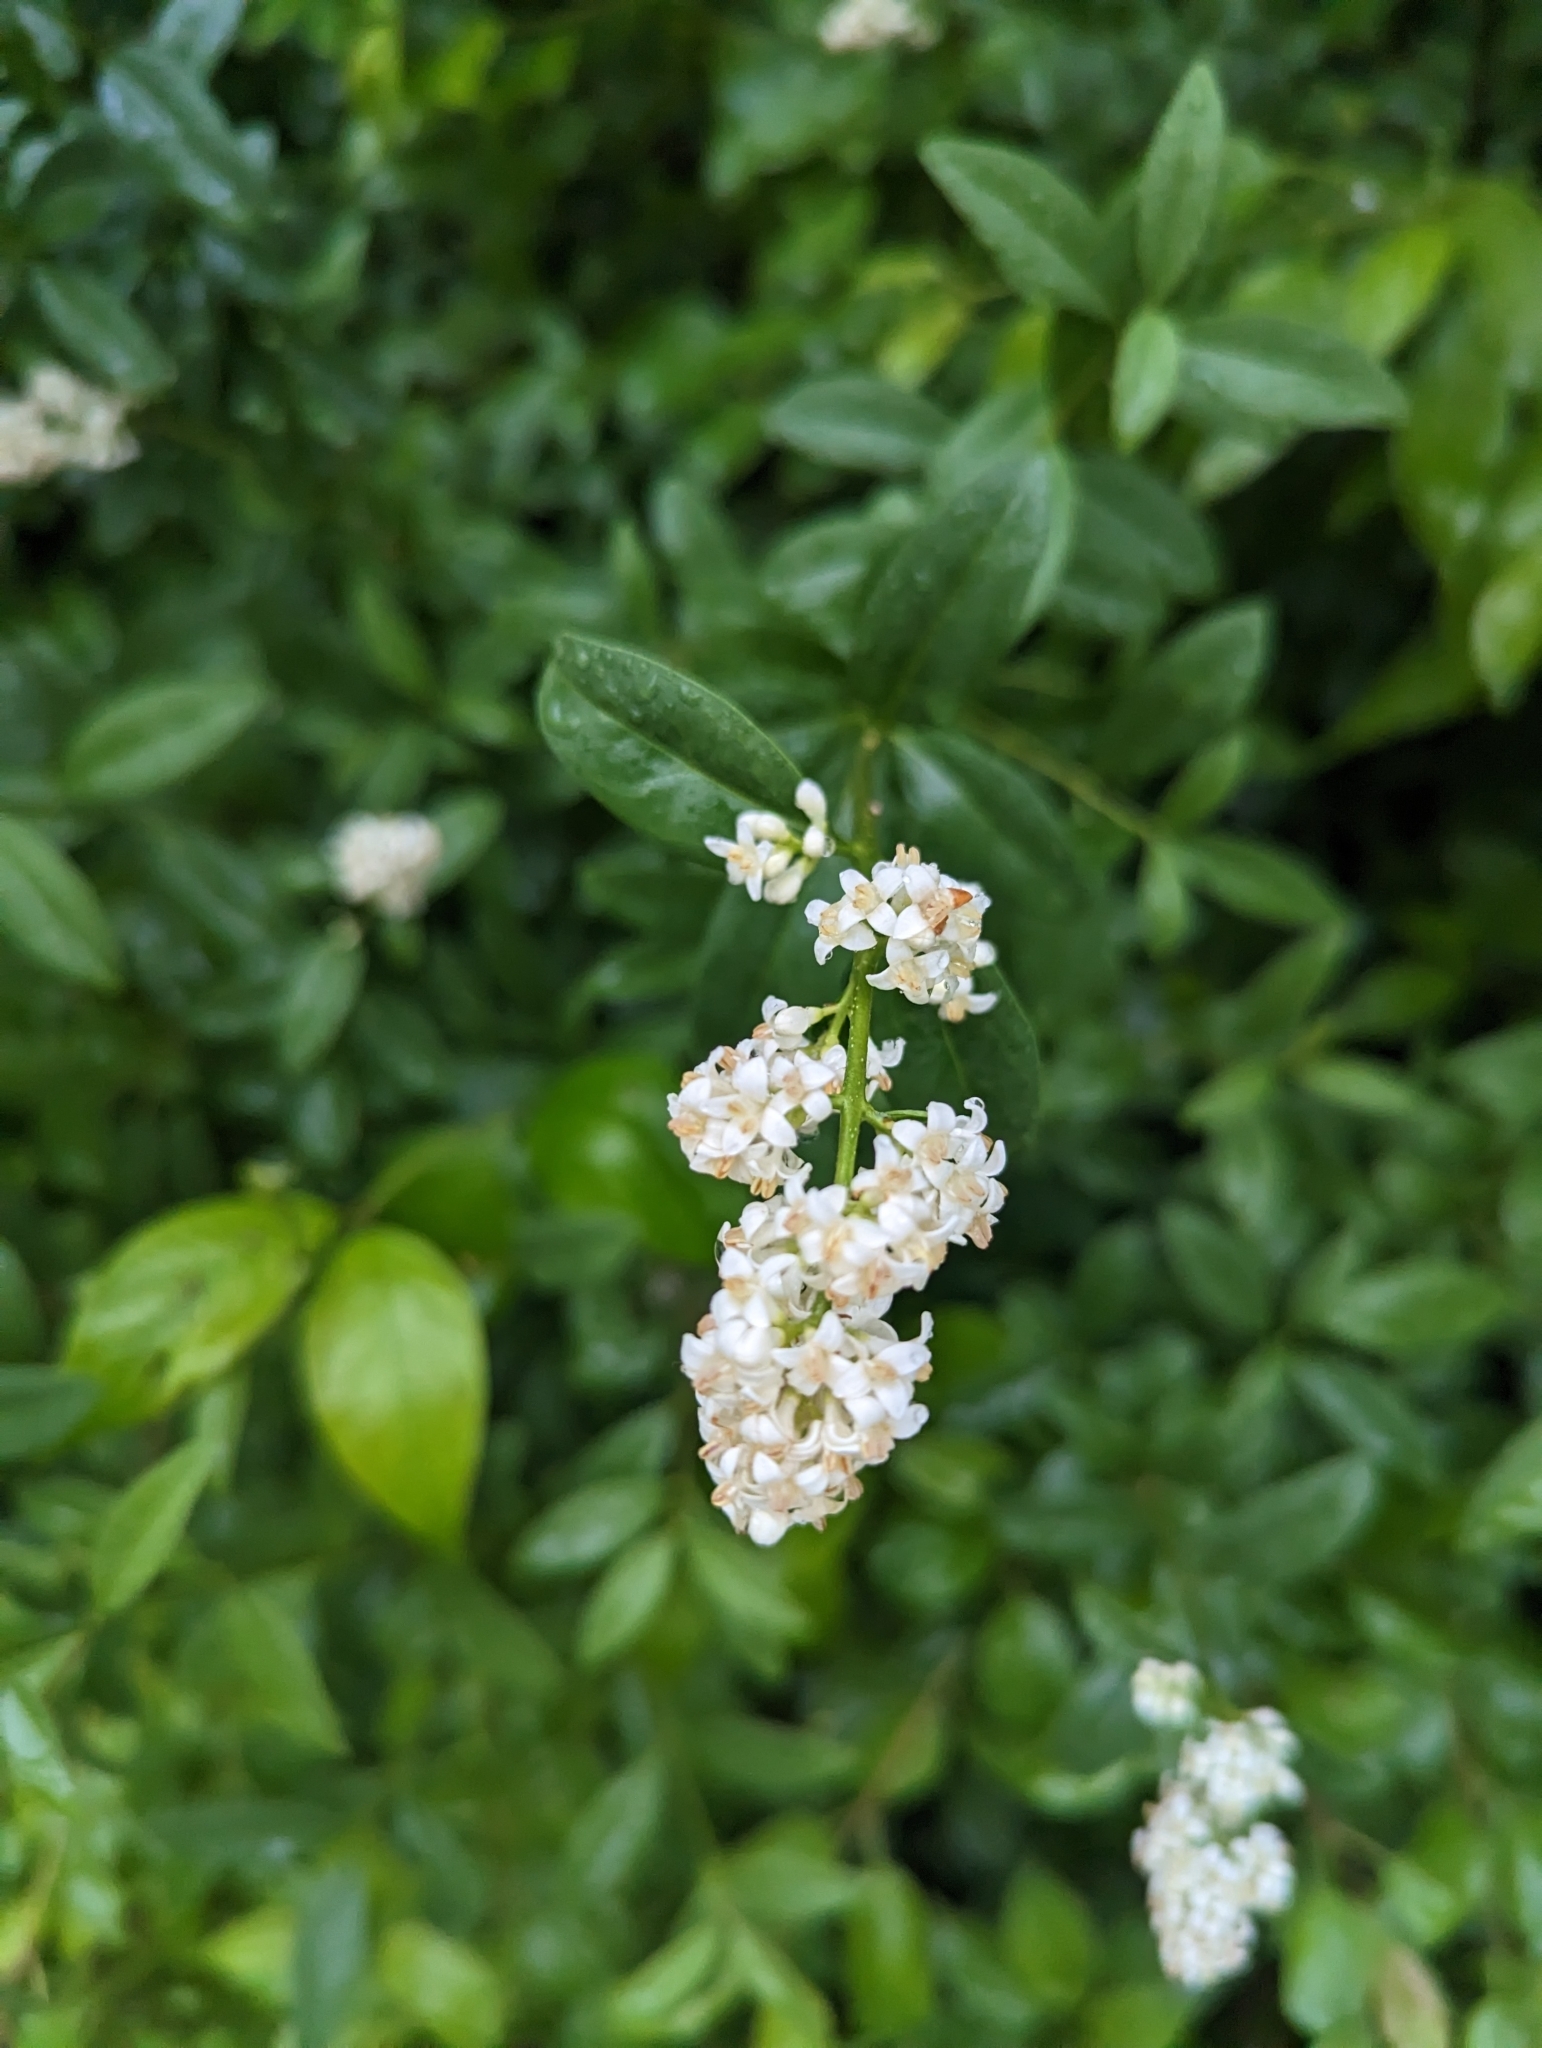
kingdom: Plantae
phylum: Tracheophyta
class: Magnoliopsida
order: Lamiales
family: Oleaceae
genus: Ligustrum
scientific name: Ligustrum vulgare
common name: Wild privet
